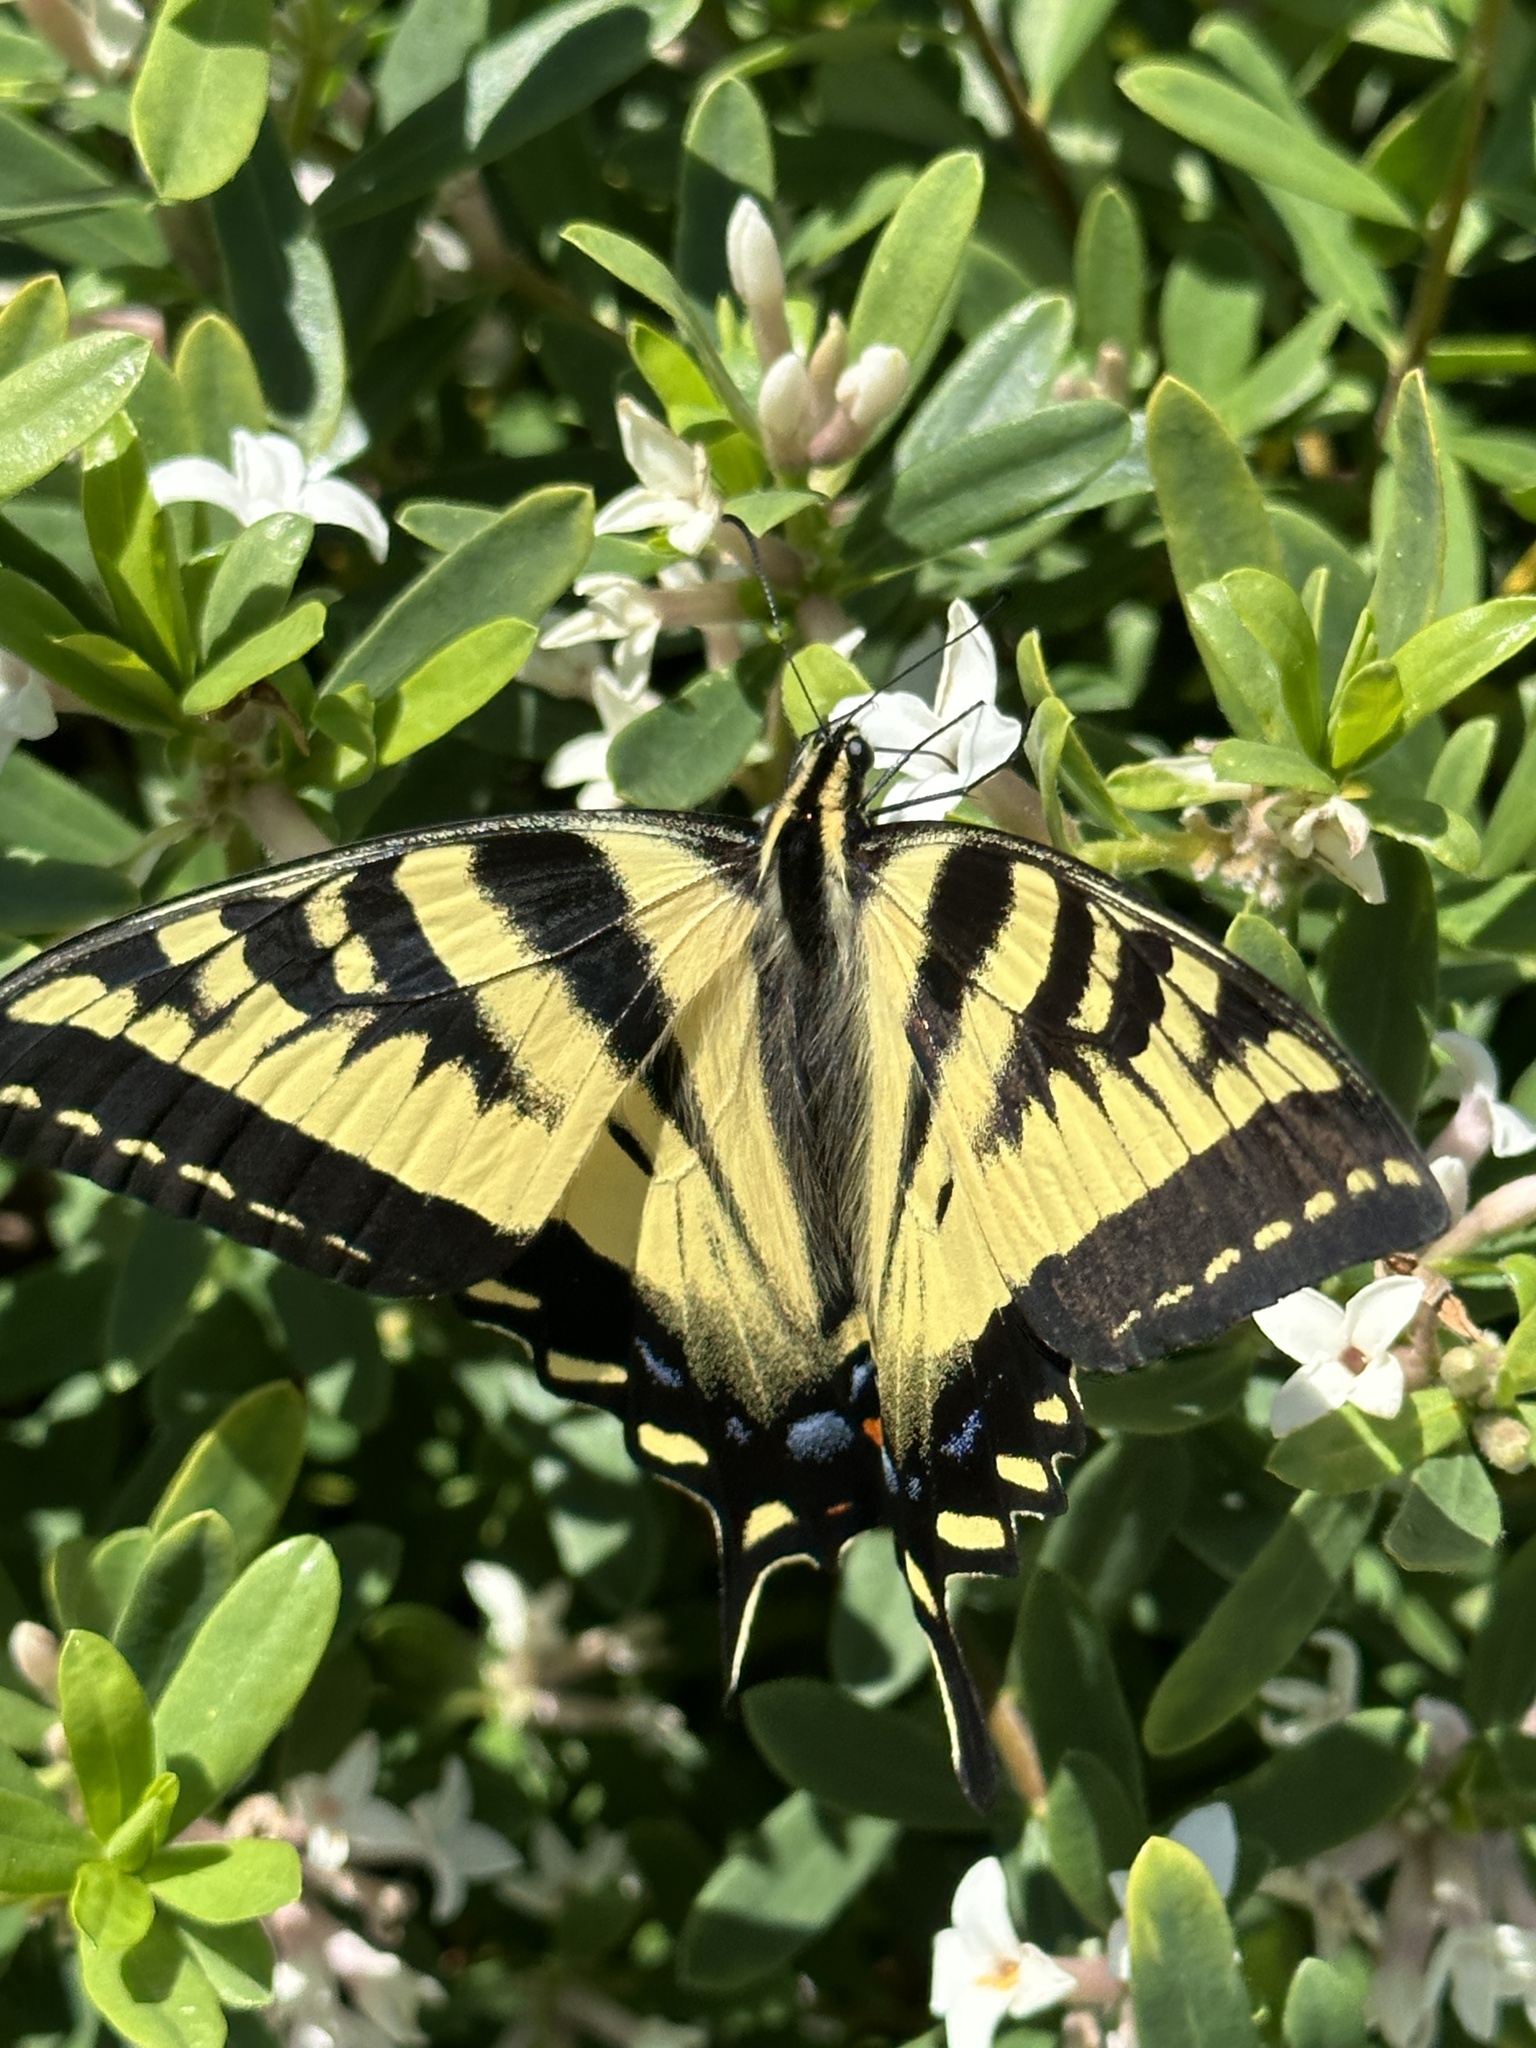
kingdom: Animalia
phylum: Arthropoda
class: Insecta
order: Lepidoptera
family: Papilionidae
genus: Papilio
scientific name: Papilio rutulus
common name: Western tiger swallowtail
